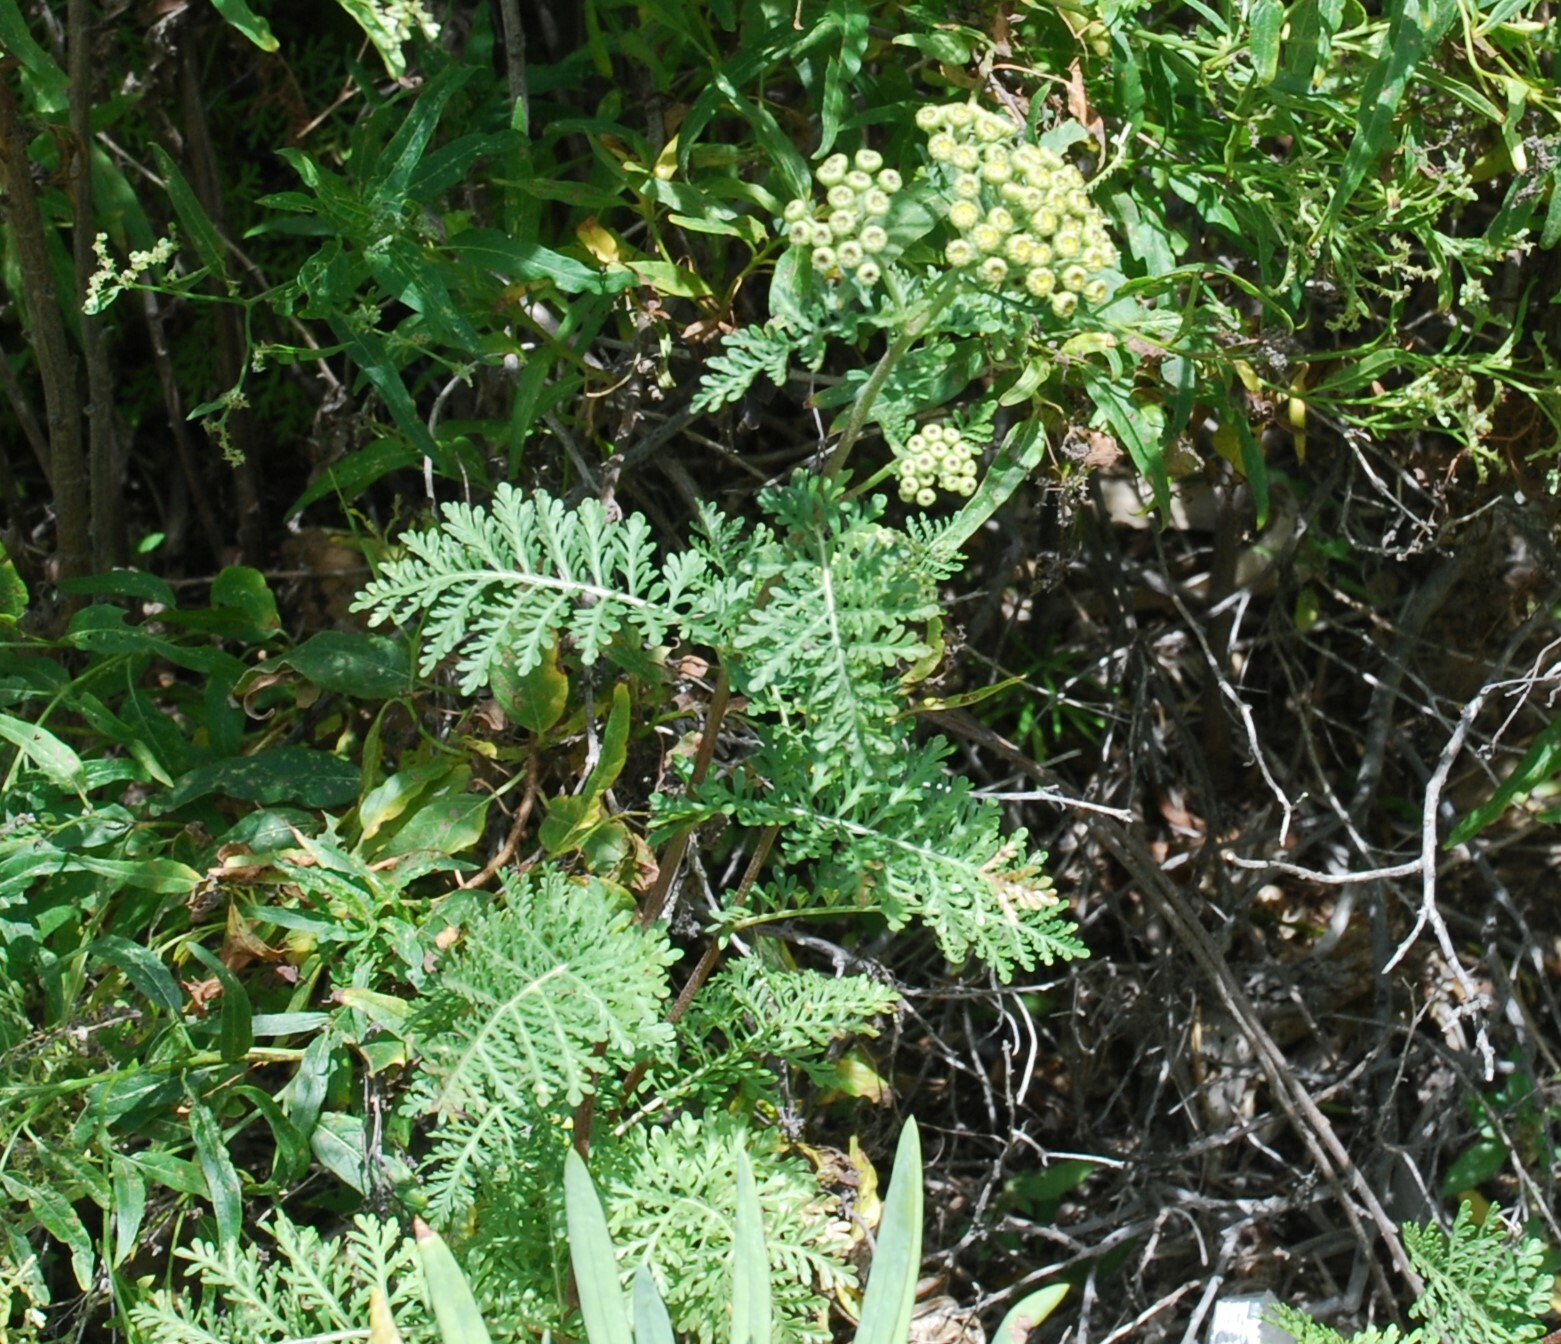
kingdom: Plantae
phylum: Tracheophyta
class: Magnoliopsida
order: Asterales
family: Asteraceae
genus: Gonospermum
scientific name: Gonospermum fruticosum
